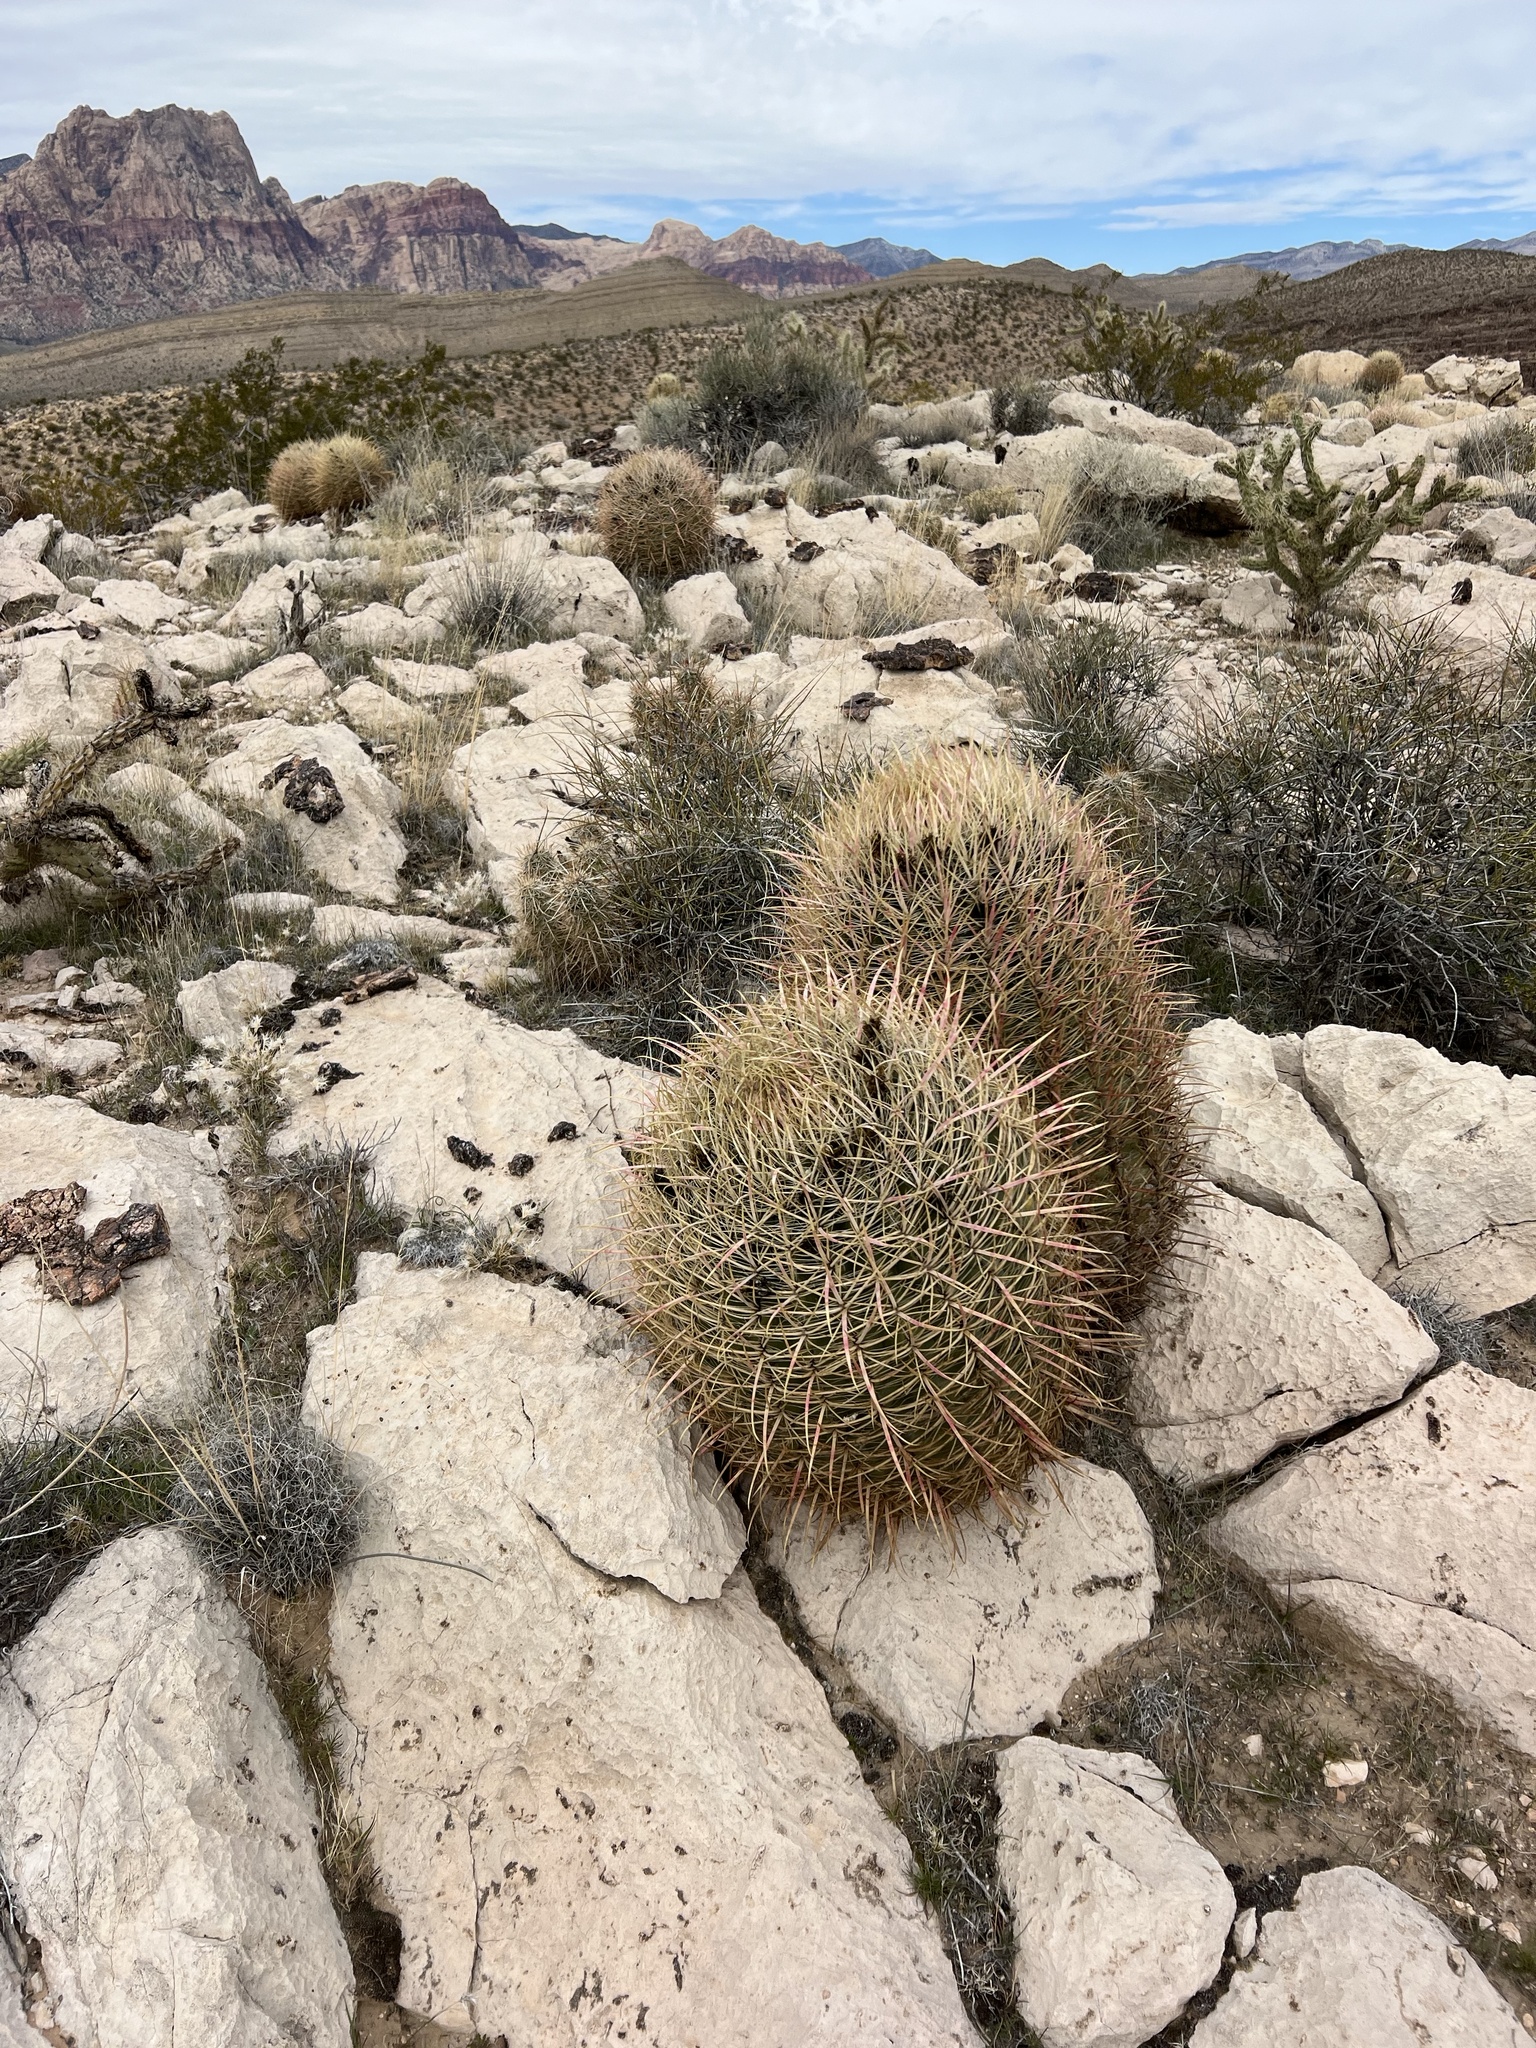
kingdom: Plantae
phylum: Tracheophyta
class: Magnoliopsida
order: Caryophyllales
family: Cactaceae
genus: Ferocactus
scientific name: Ferocactus cylindraceus
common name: California barrel cactus
